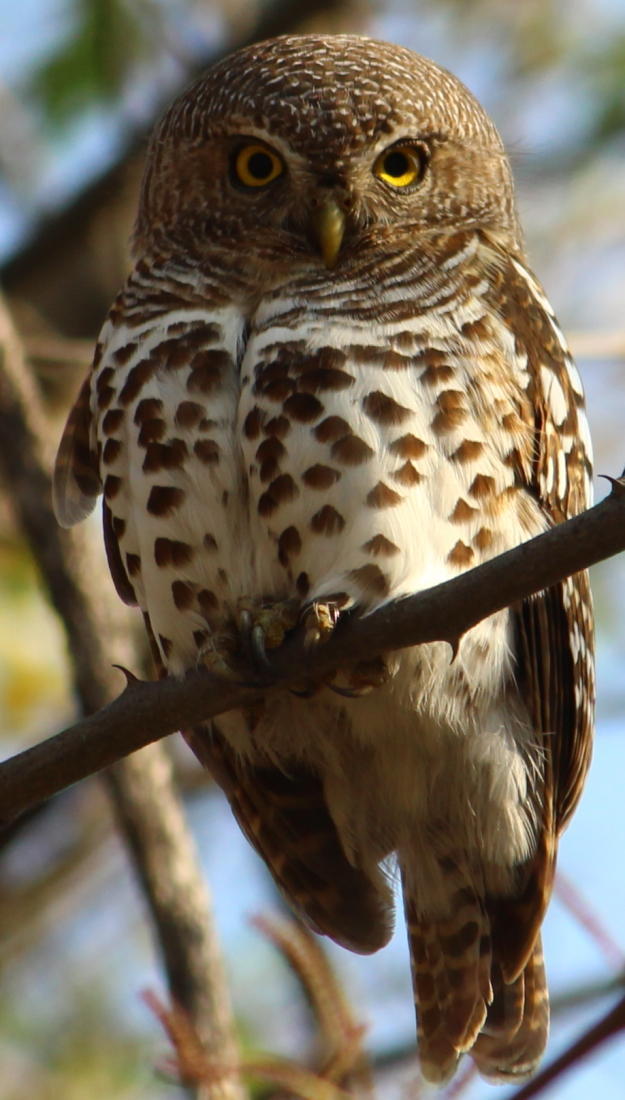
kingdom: Animalia
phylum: Chordata
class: Aves
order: Strigiformes
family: Strigidae
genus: Glaucidium
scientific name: Glaucidium capense
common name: African barred owlet
